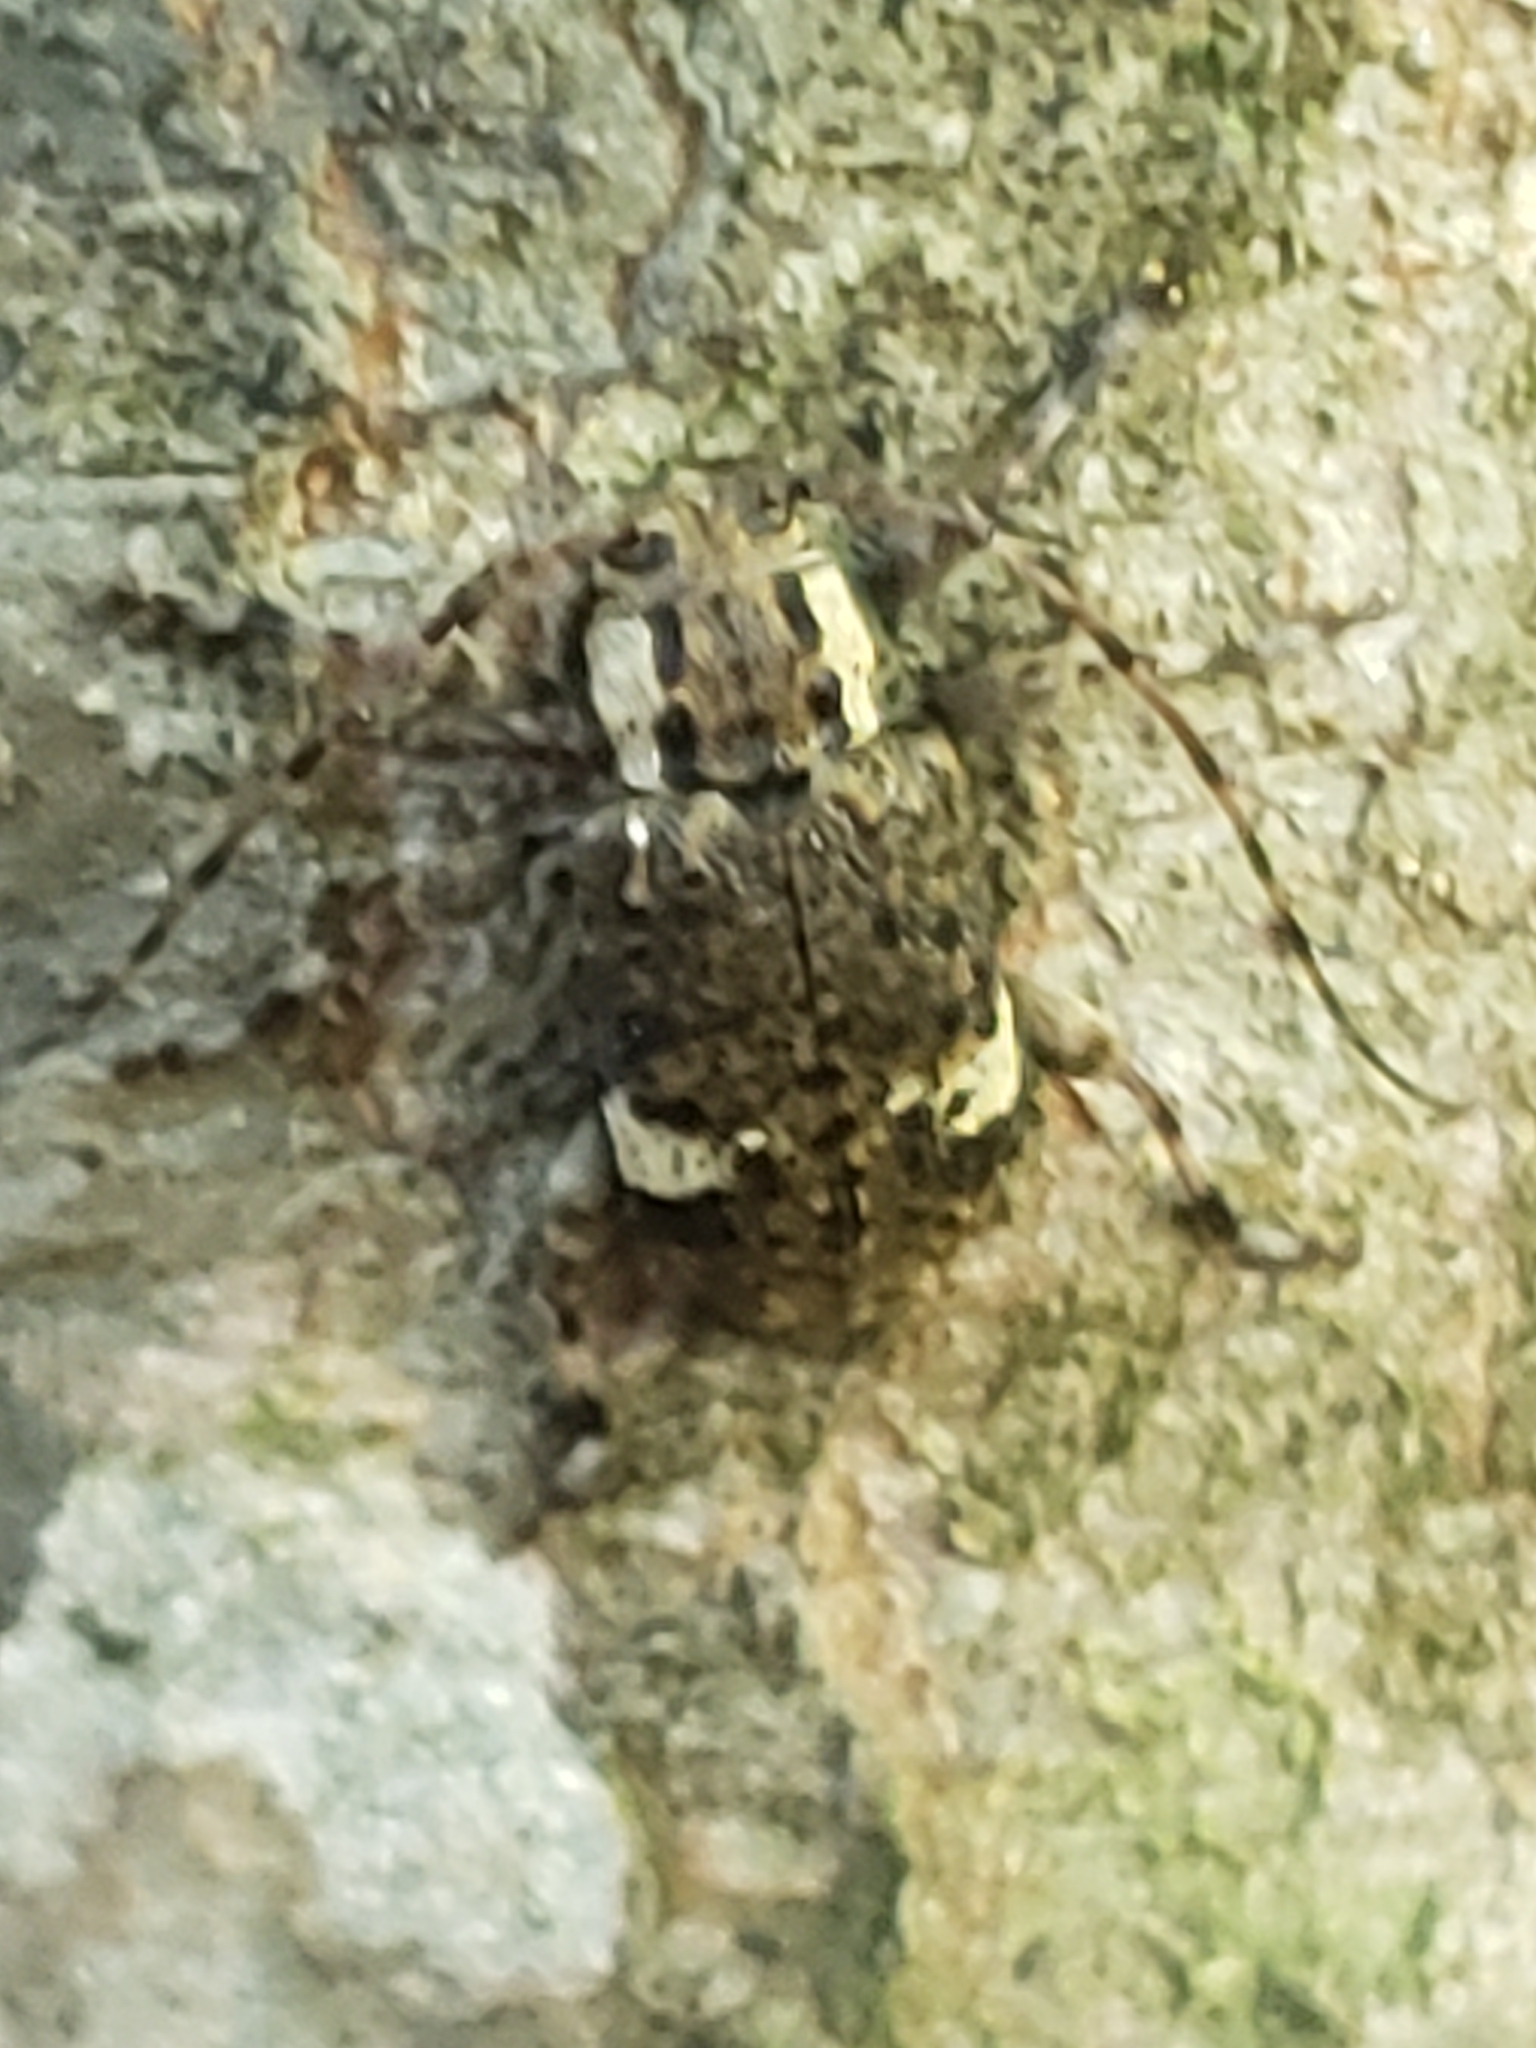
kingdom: Animalia
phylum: Arthropoda
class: Insecta
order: Coleoptera
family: Cerambycidae
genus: Astylopsis
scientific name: Astylopsis macula
